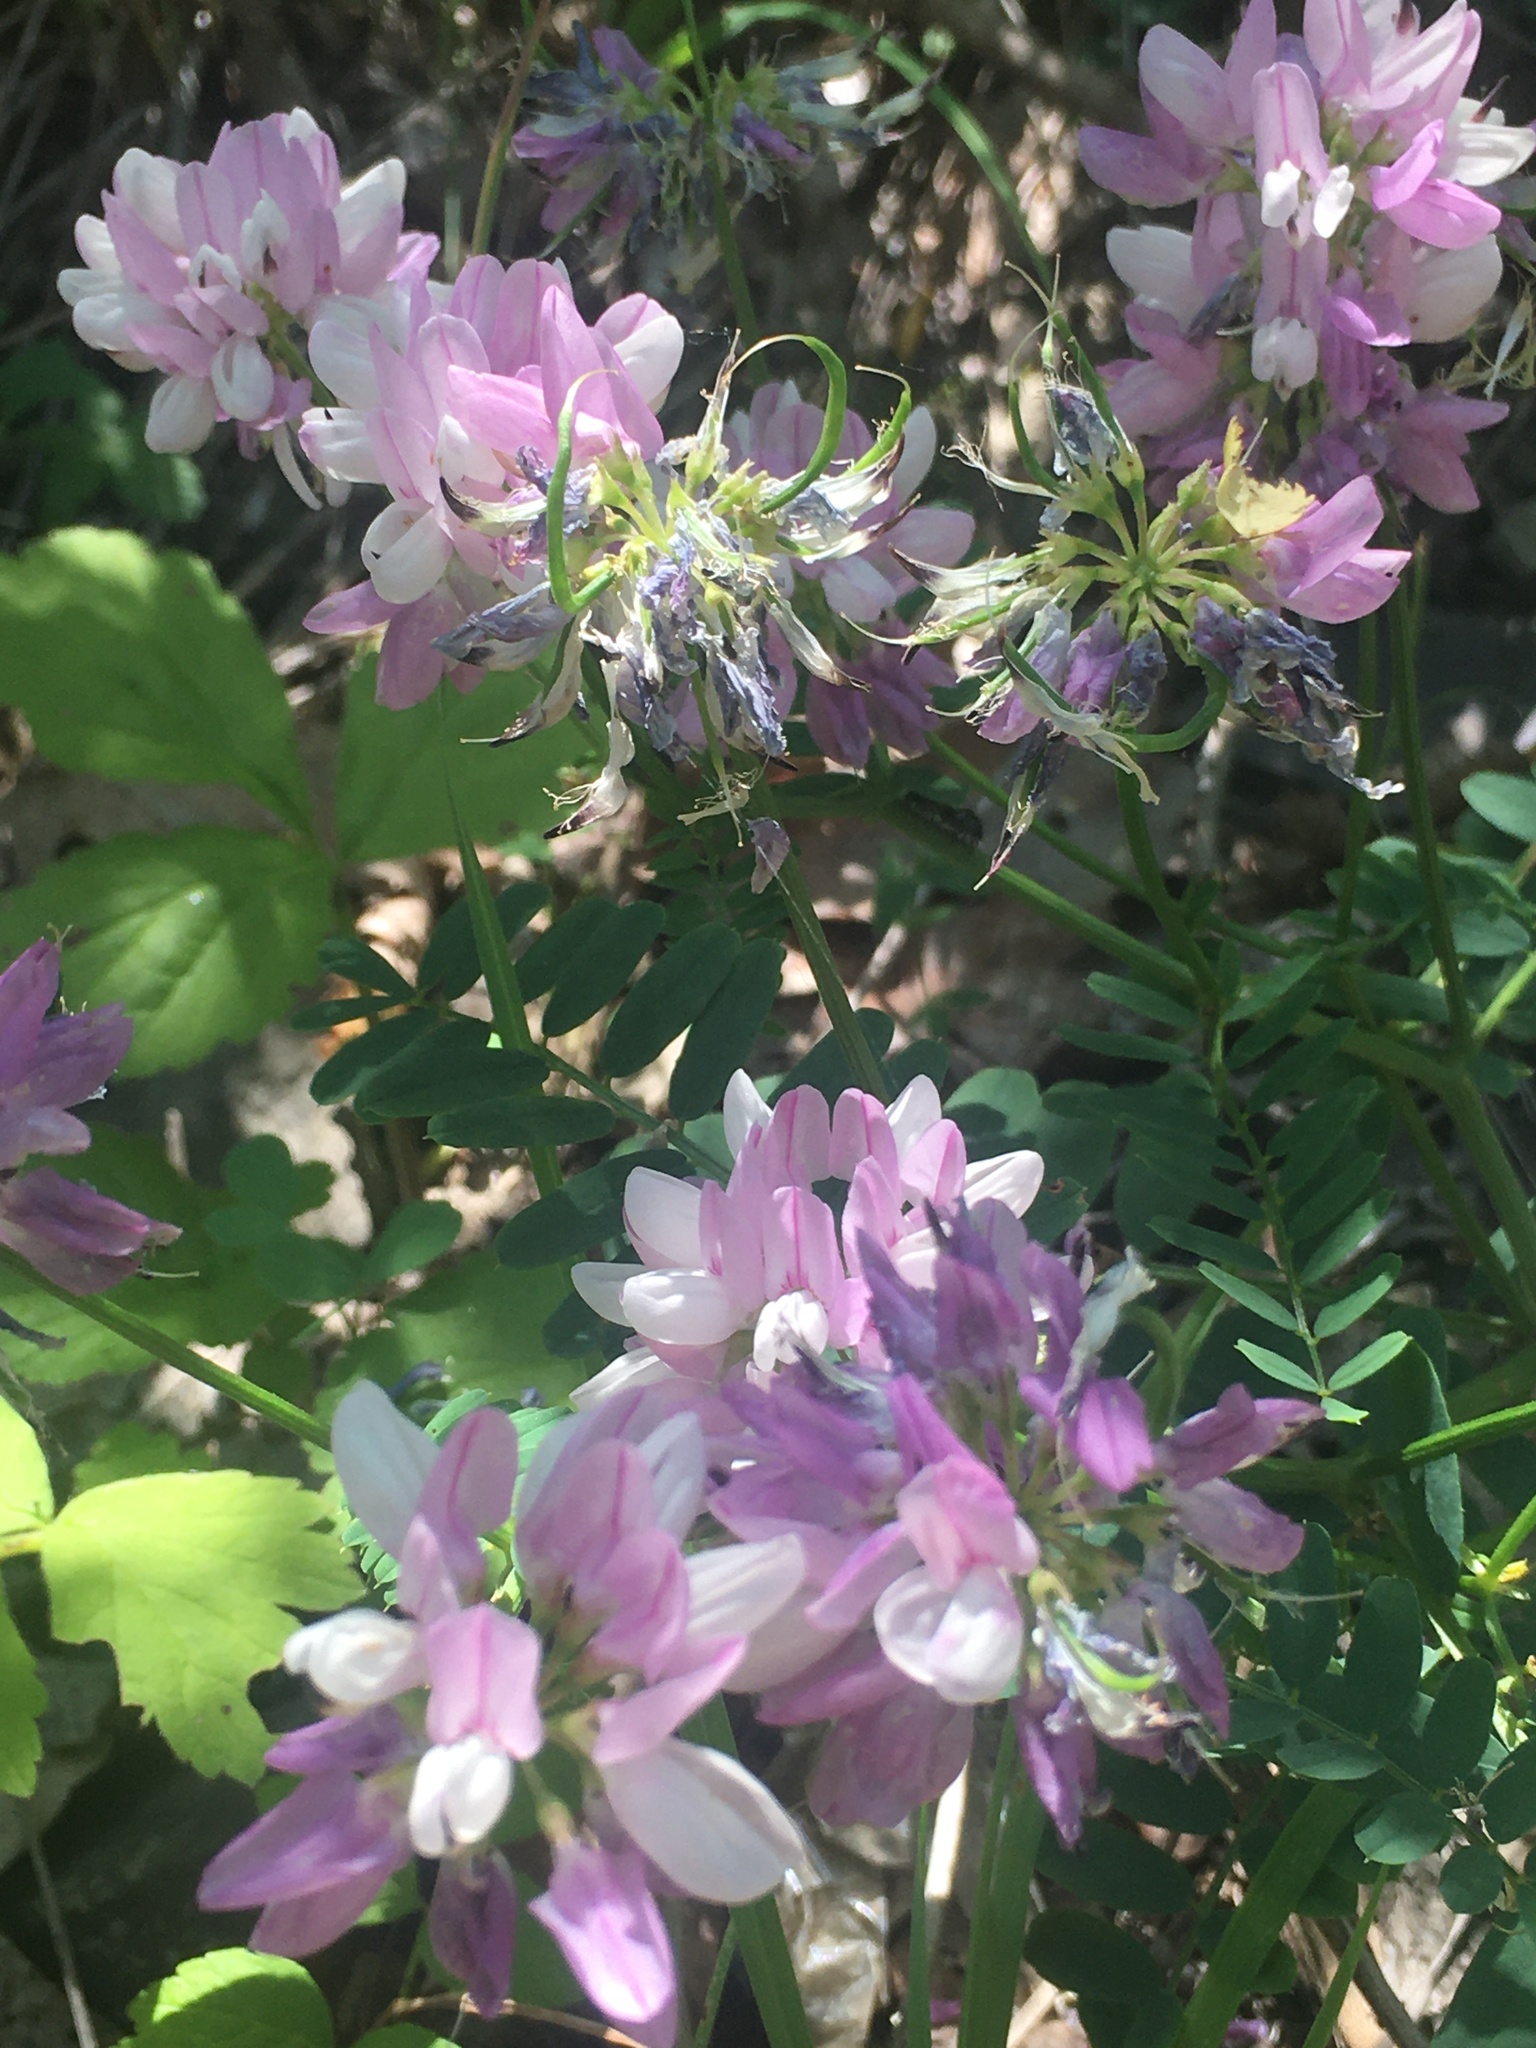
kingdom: Plantae
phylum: Tracheophyta
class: Magnoliopsida
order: Fabales
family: Fabaceae
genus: Coronilla
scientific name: Coronilla varia
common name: Crownvetch
